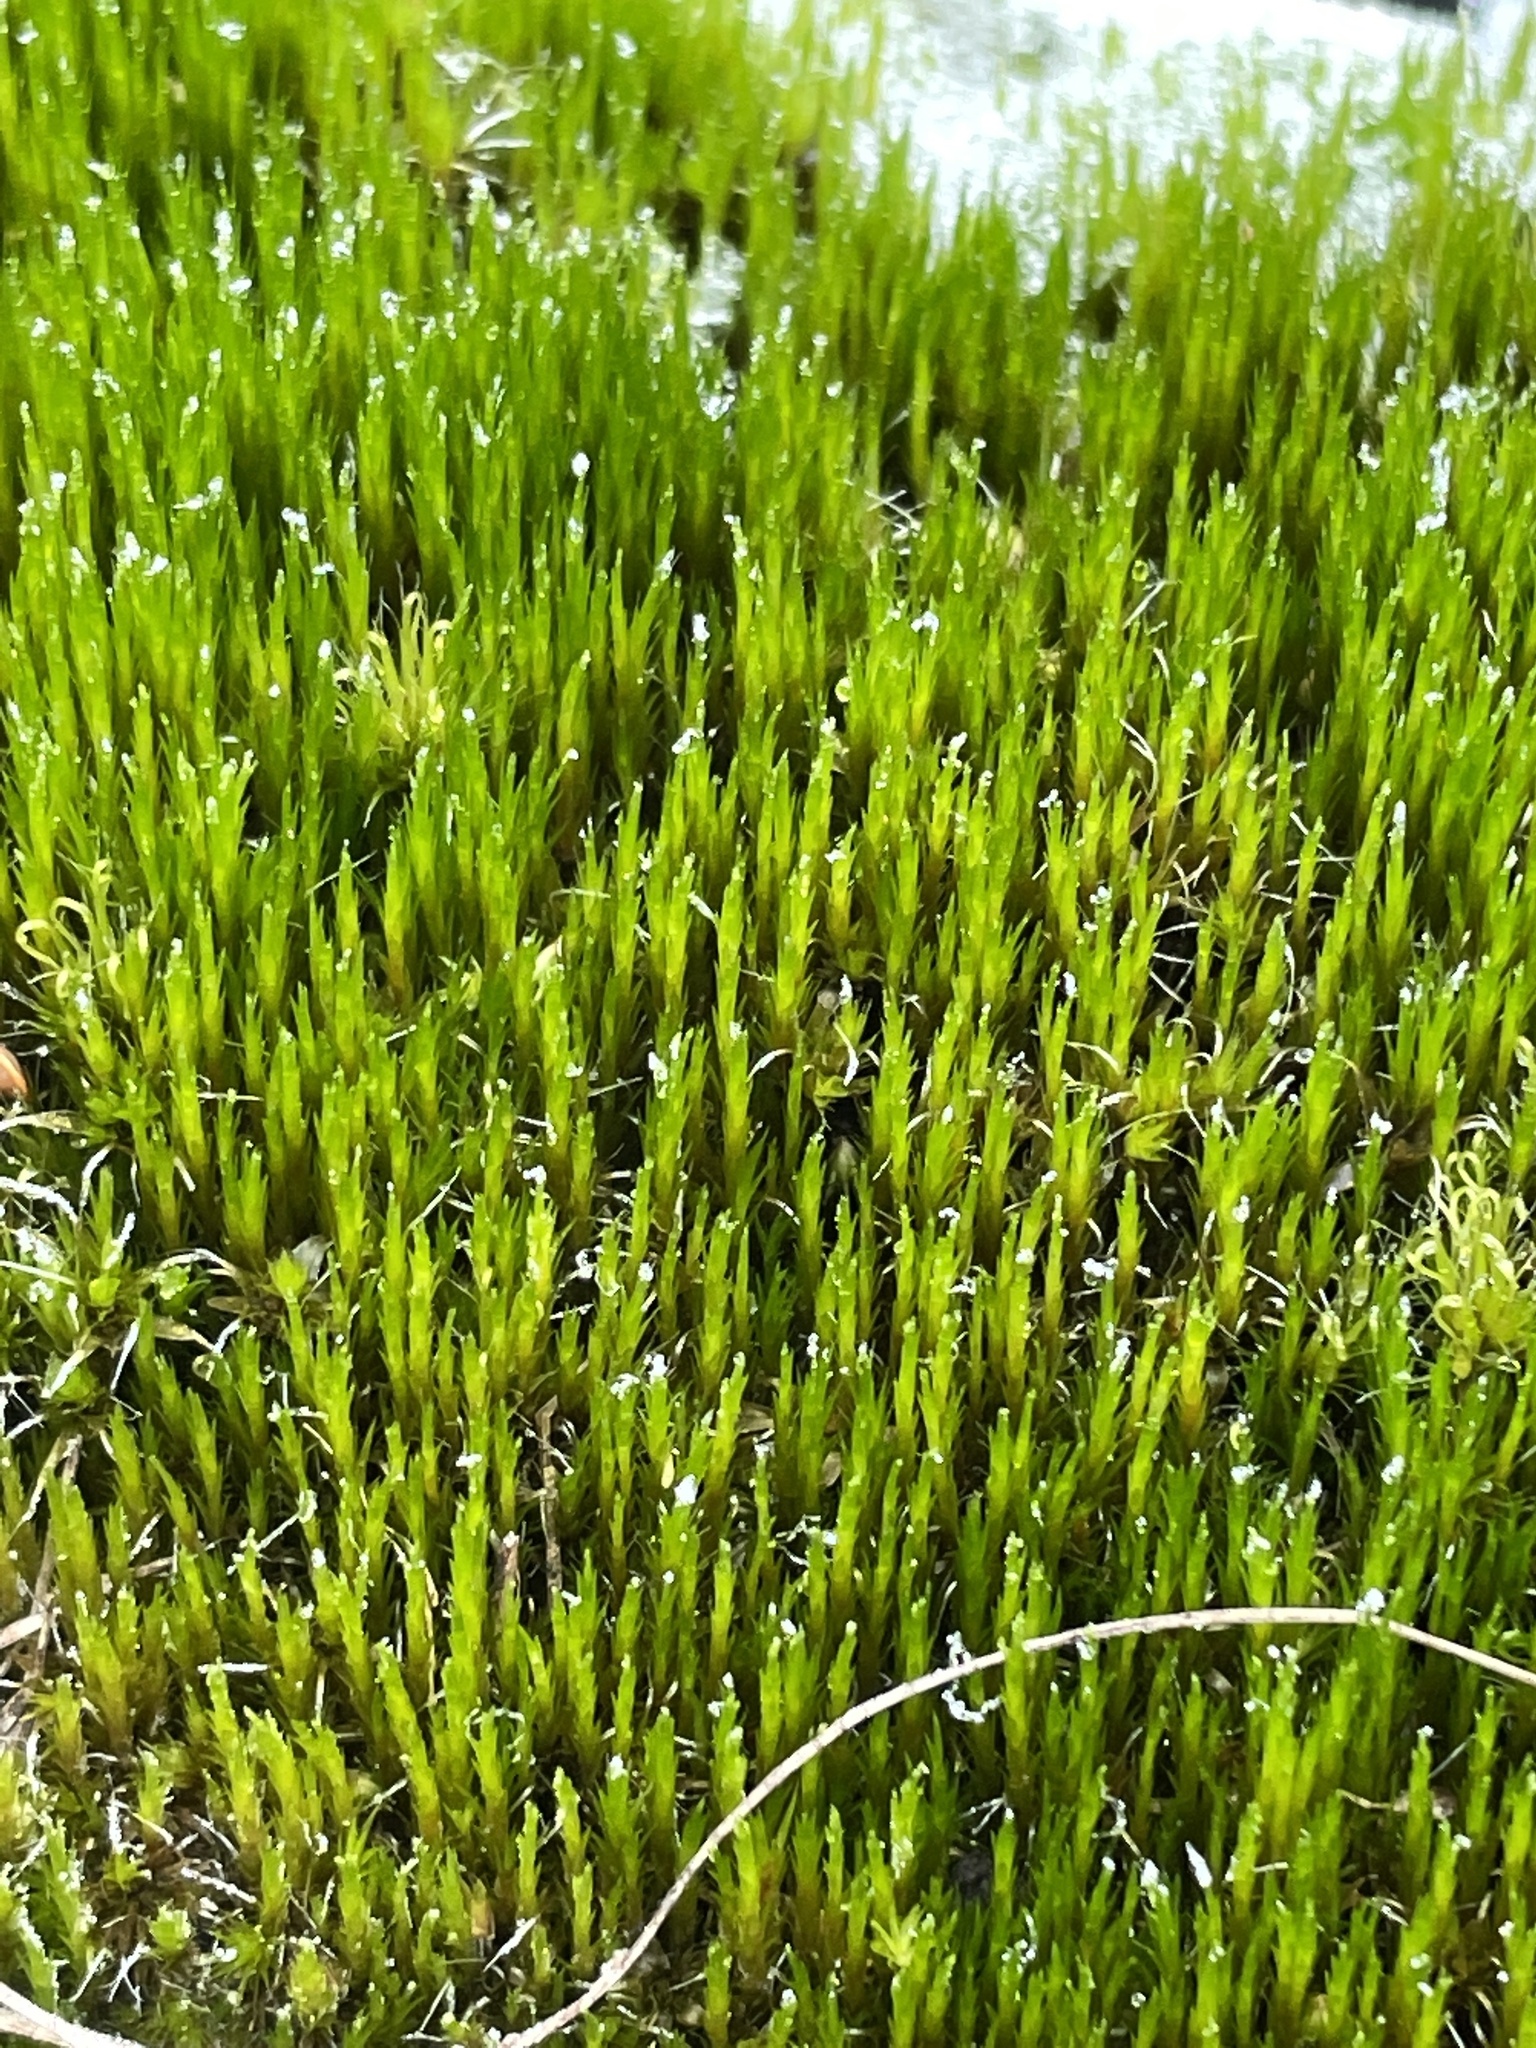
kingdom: Plantae
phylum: Bryophyta
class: Bryopsida
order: Dicranales
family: Leucobryaceae
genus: Campylopus
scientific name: Campylopus introflexus
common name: Heath star moss
